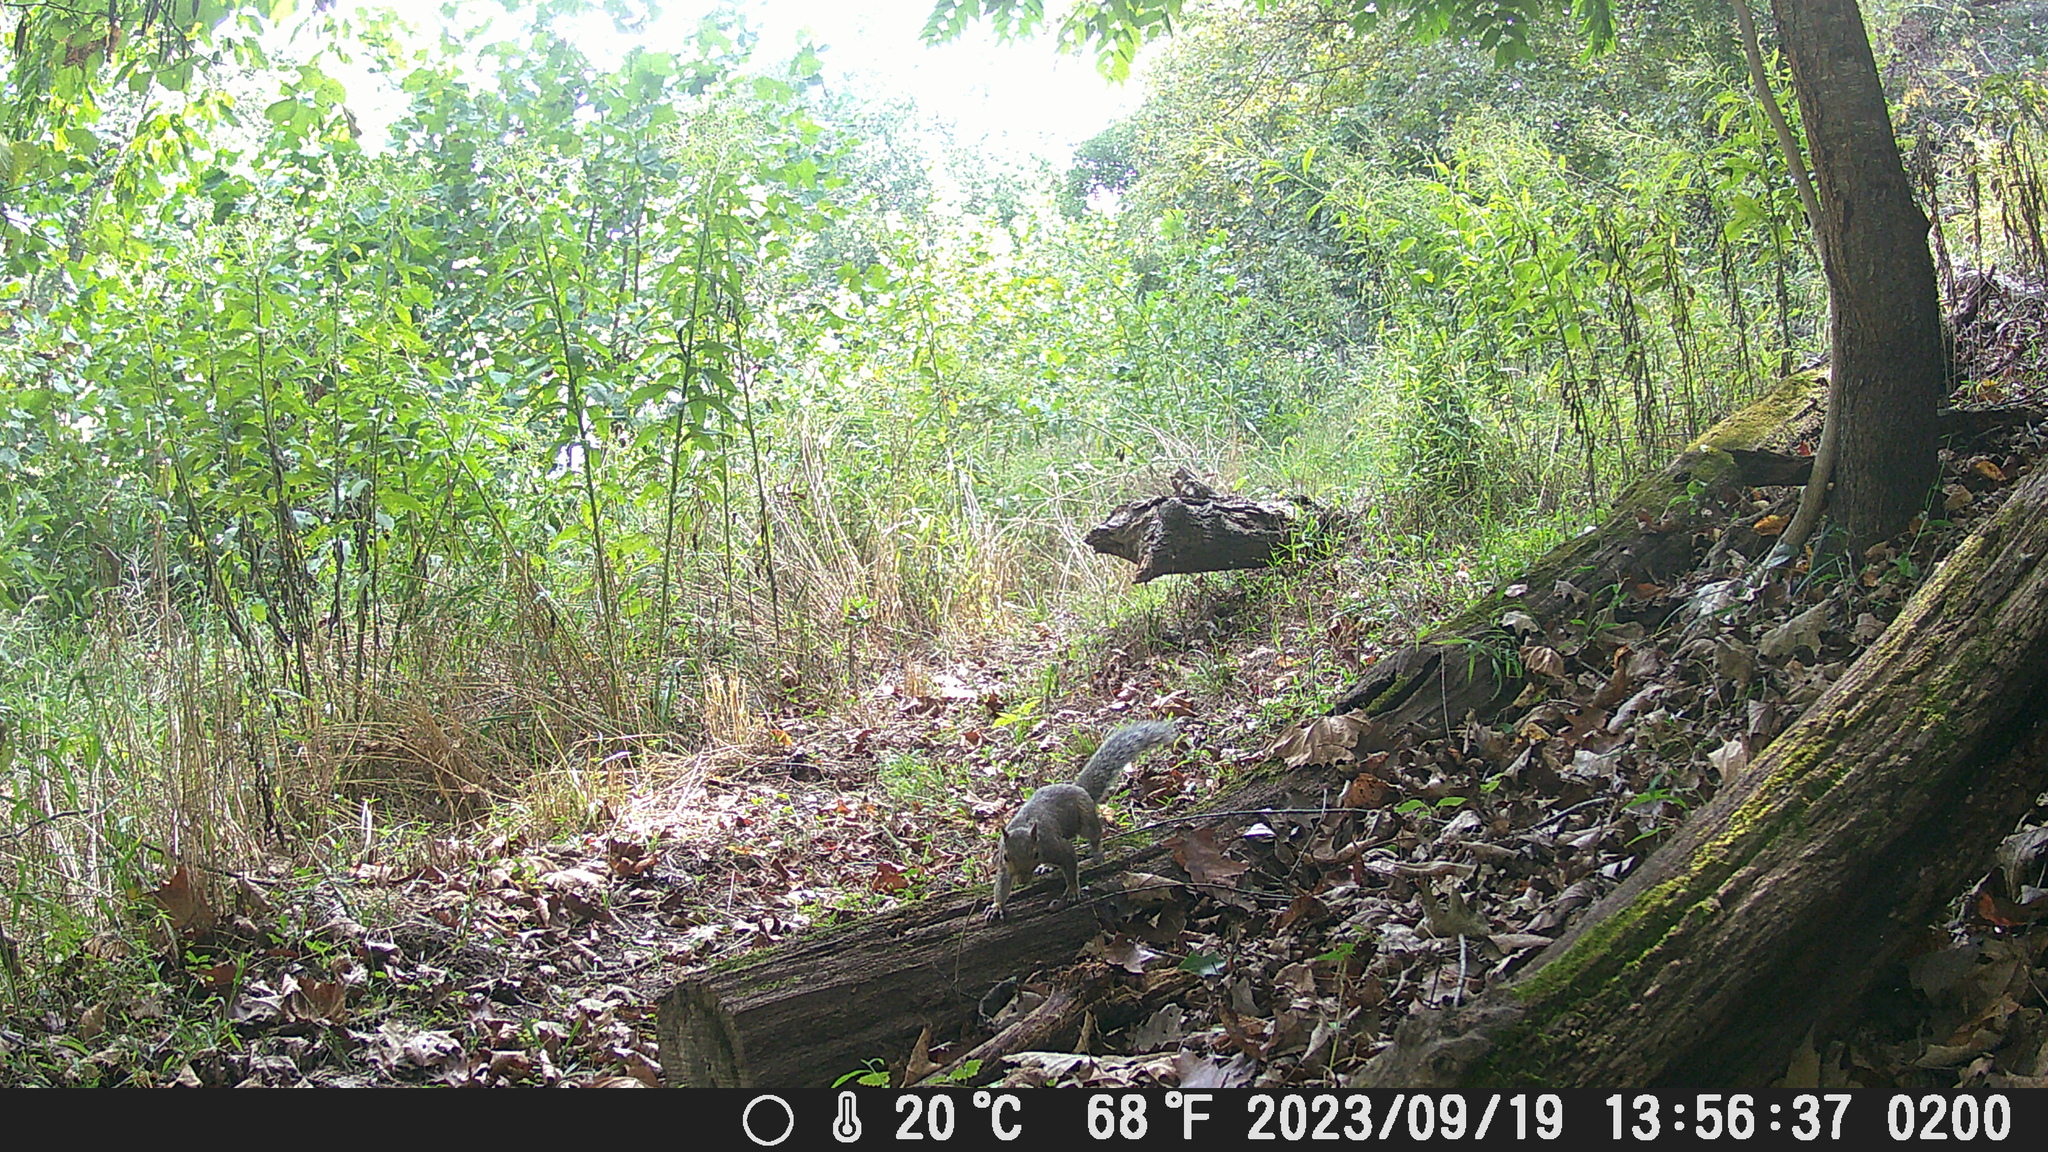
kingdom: Animalia
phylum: Chordata
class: Mammalia
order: Rodentia
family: Sciuridae
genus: Sciurus
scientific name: Sciurus carolinensis
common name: Eastern gray squirrel
